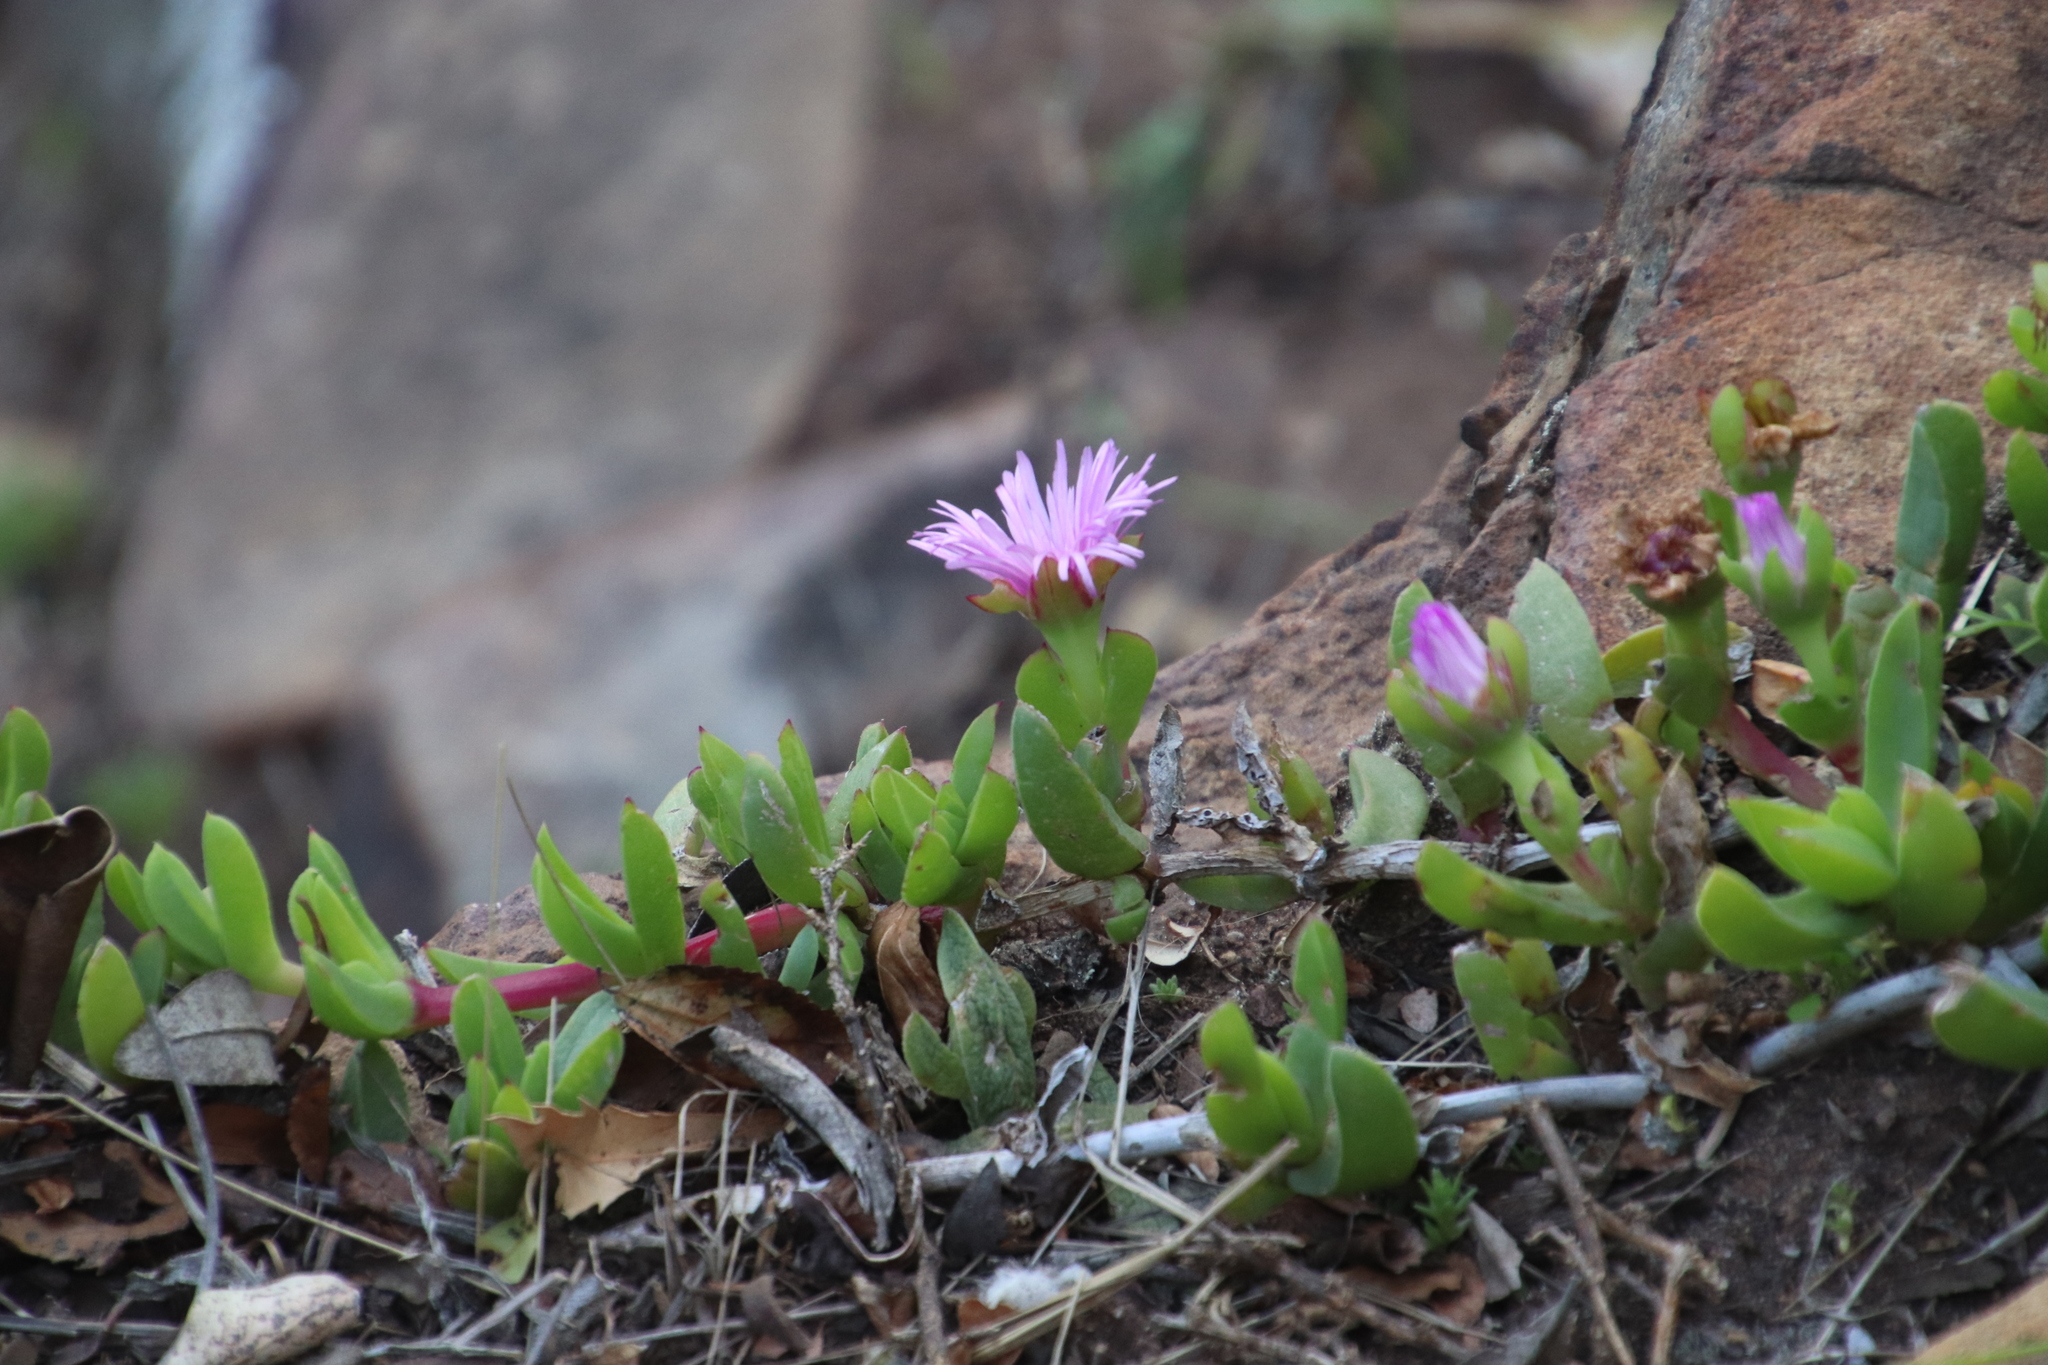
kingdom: Plantae
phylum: Tracheophyta
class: Magnoliopsida
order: Caryophyllales
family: Aizoaceae
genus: Ruschia
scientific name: Ruschia rubricaulis
